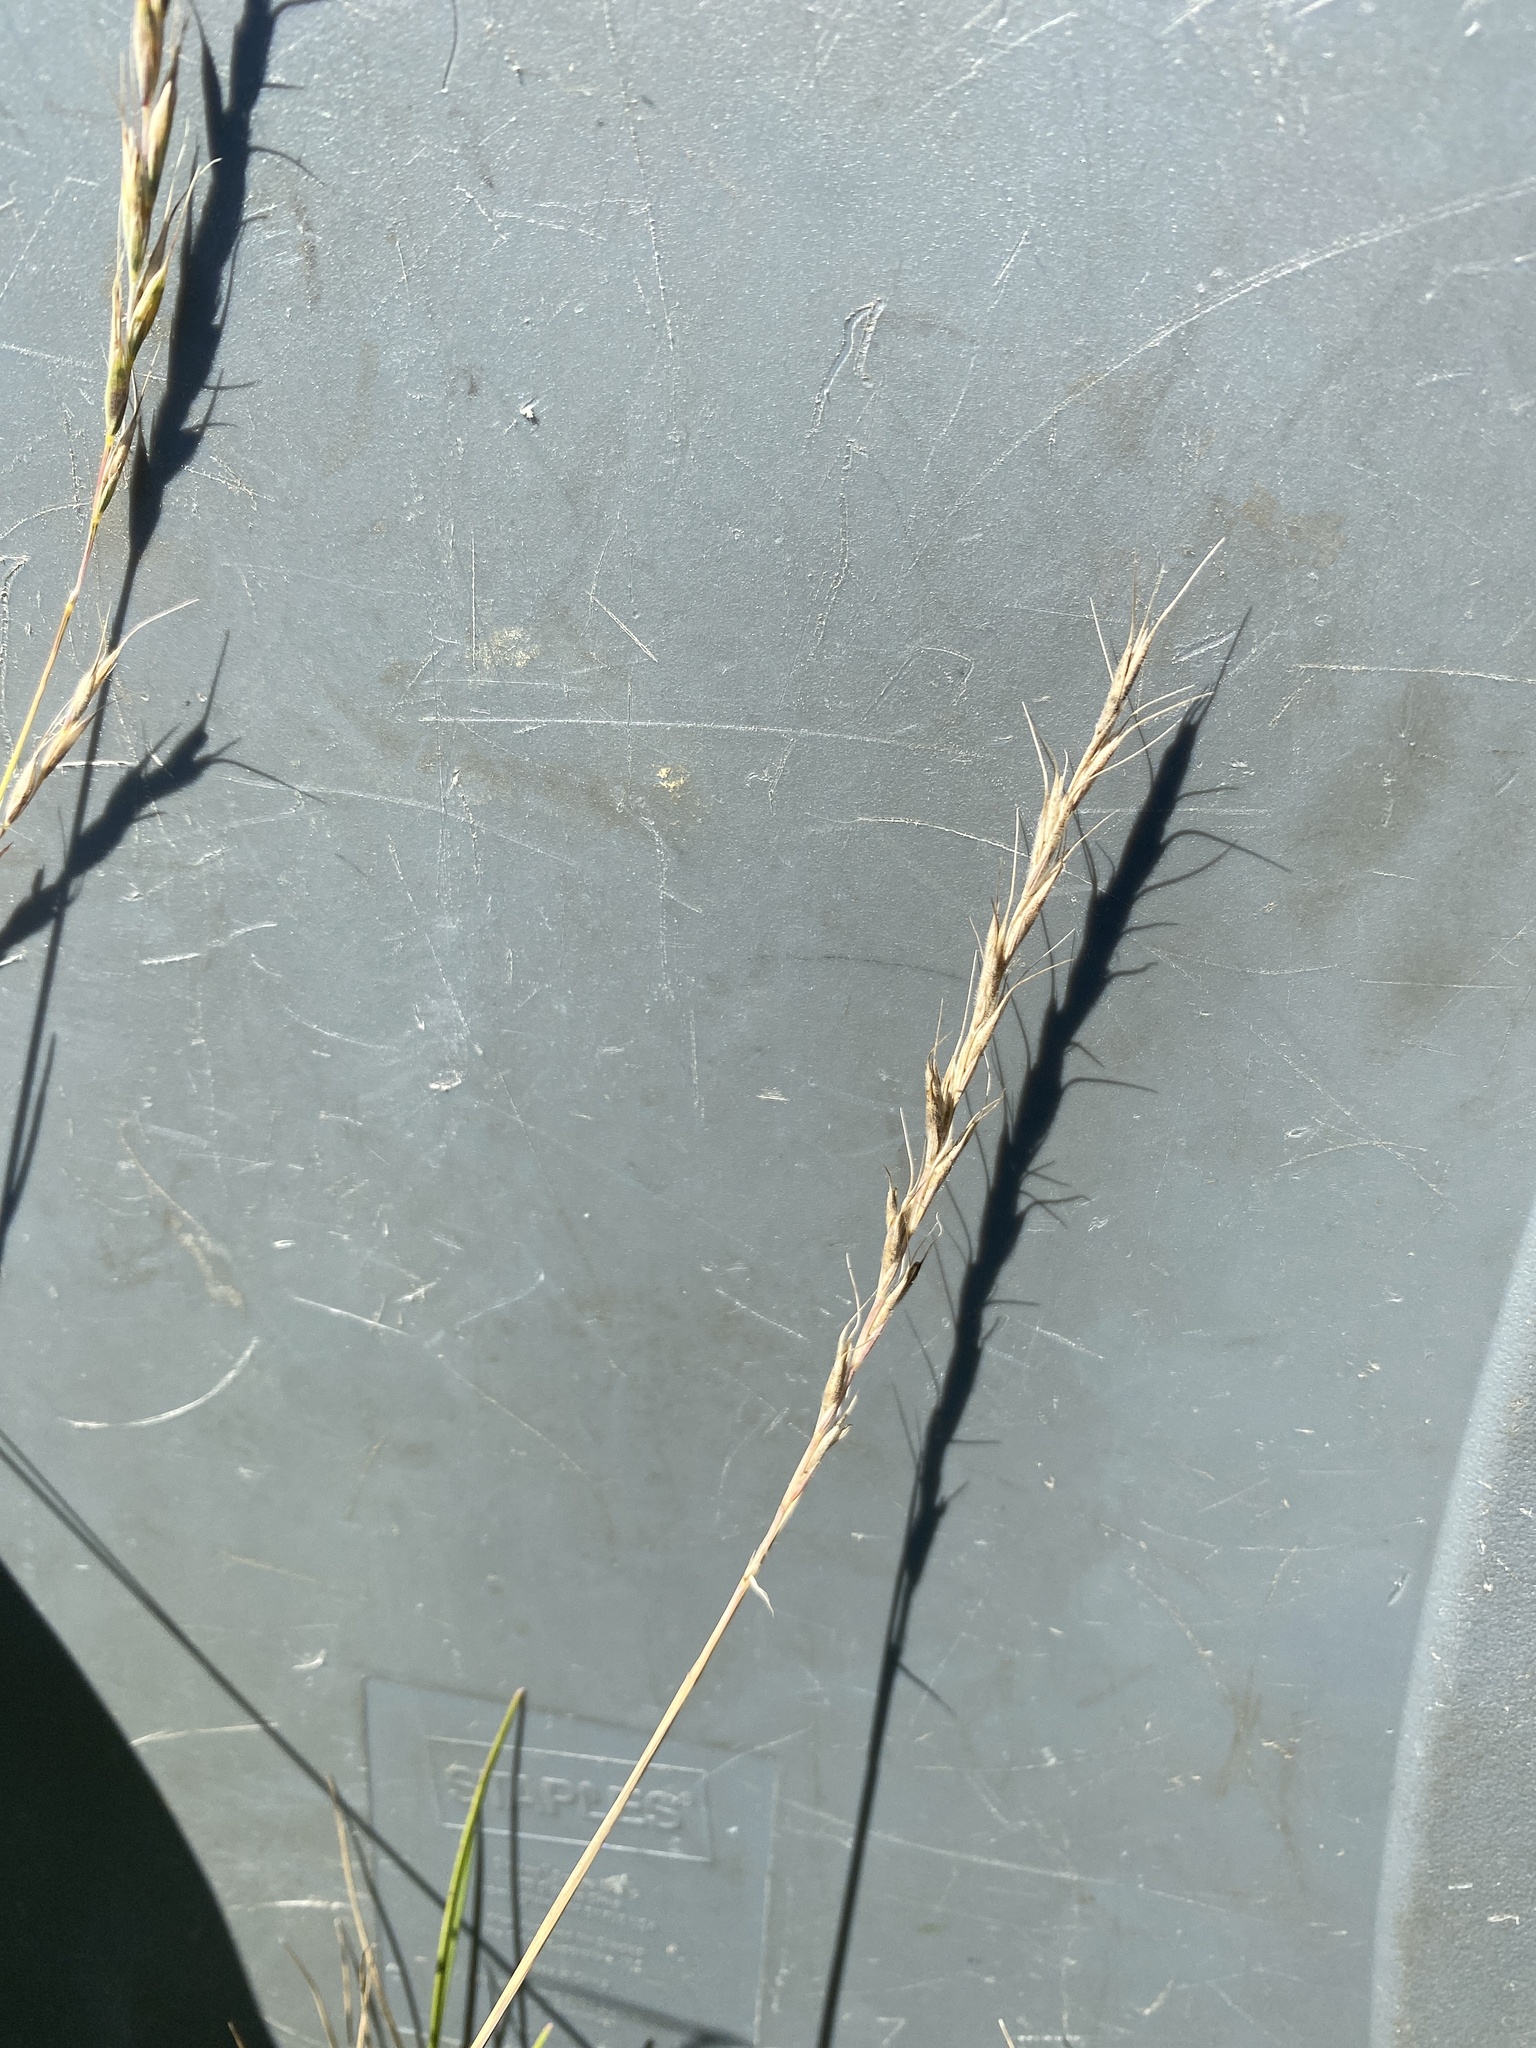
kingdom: Plantae
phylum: Tracheophyta
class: Liliopsida
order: Poales
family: Poaceae
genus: Elymus
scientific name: Elymus albicans
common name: Montana wheatgrass
